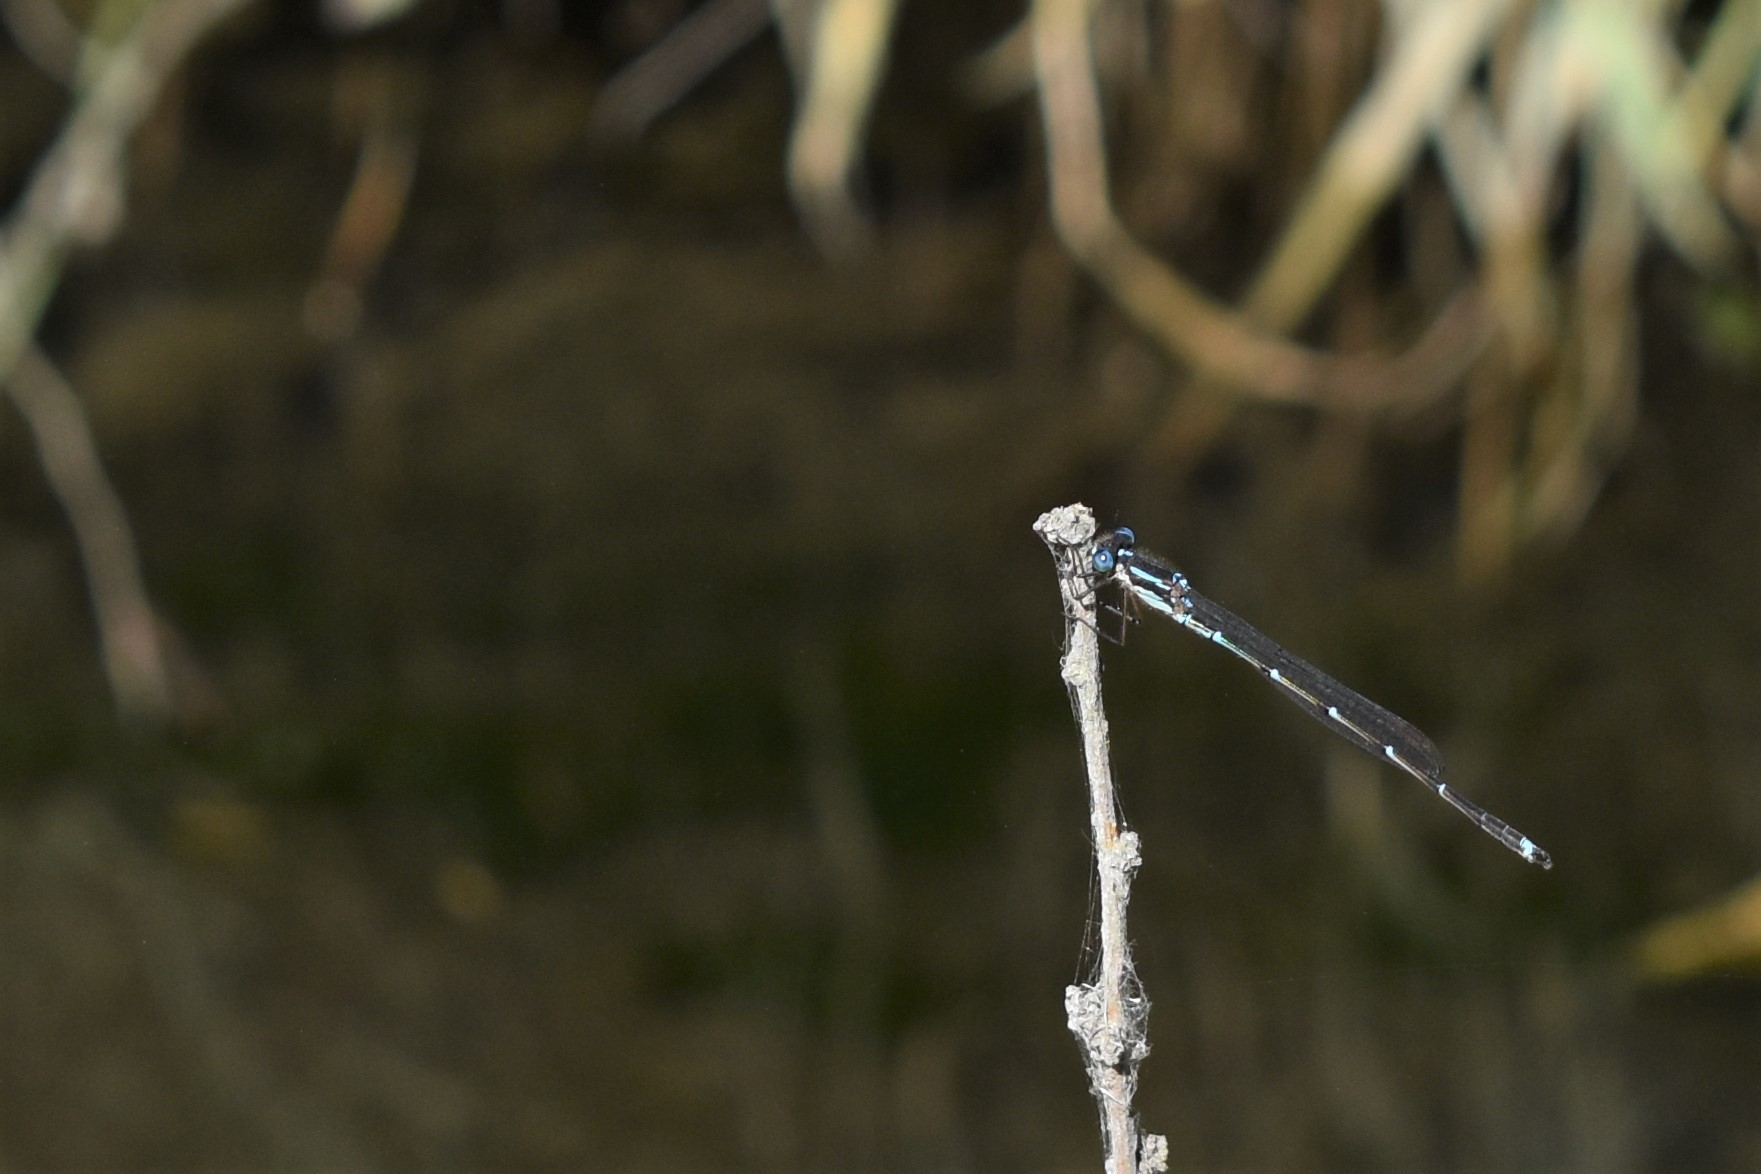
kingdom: Animalia
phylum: Arthropoda
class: Insecta
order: Odonata
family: Lestidae
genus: Austrolestes
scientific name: Austrolestes colensonis
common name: Blue damselfly
